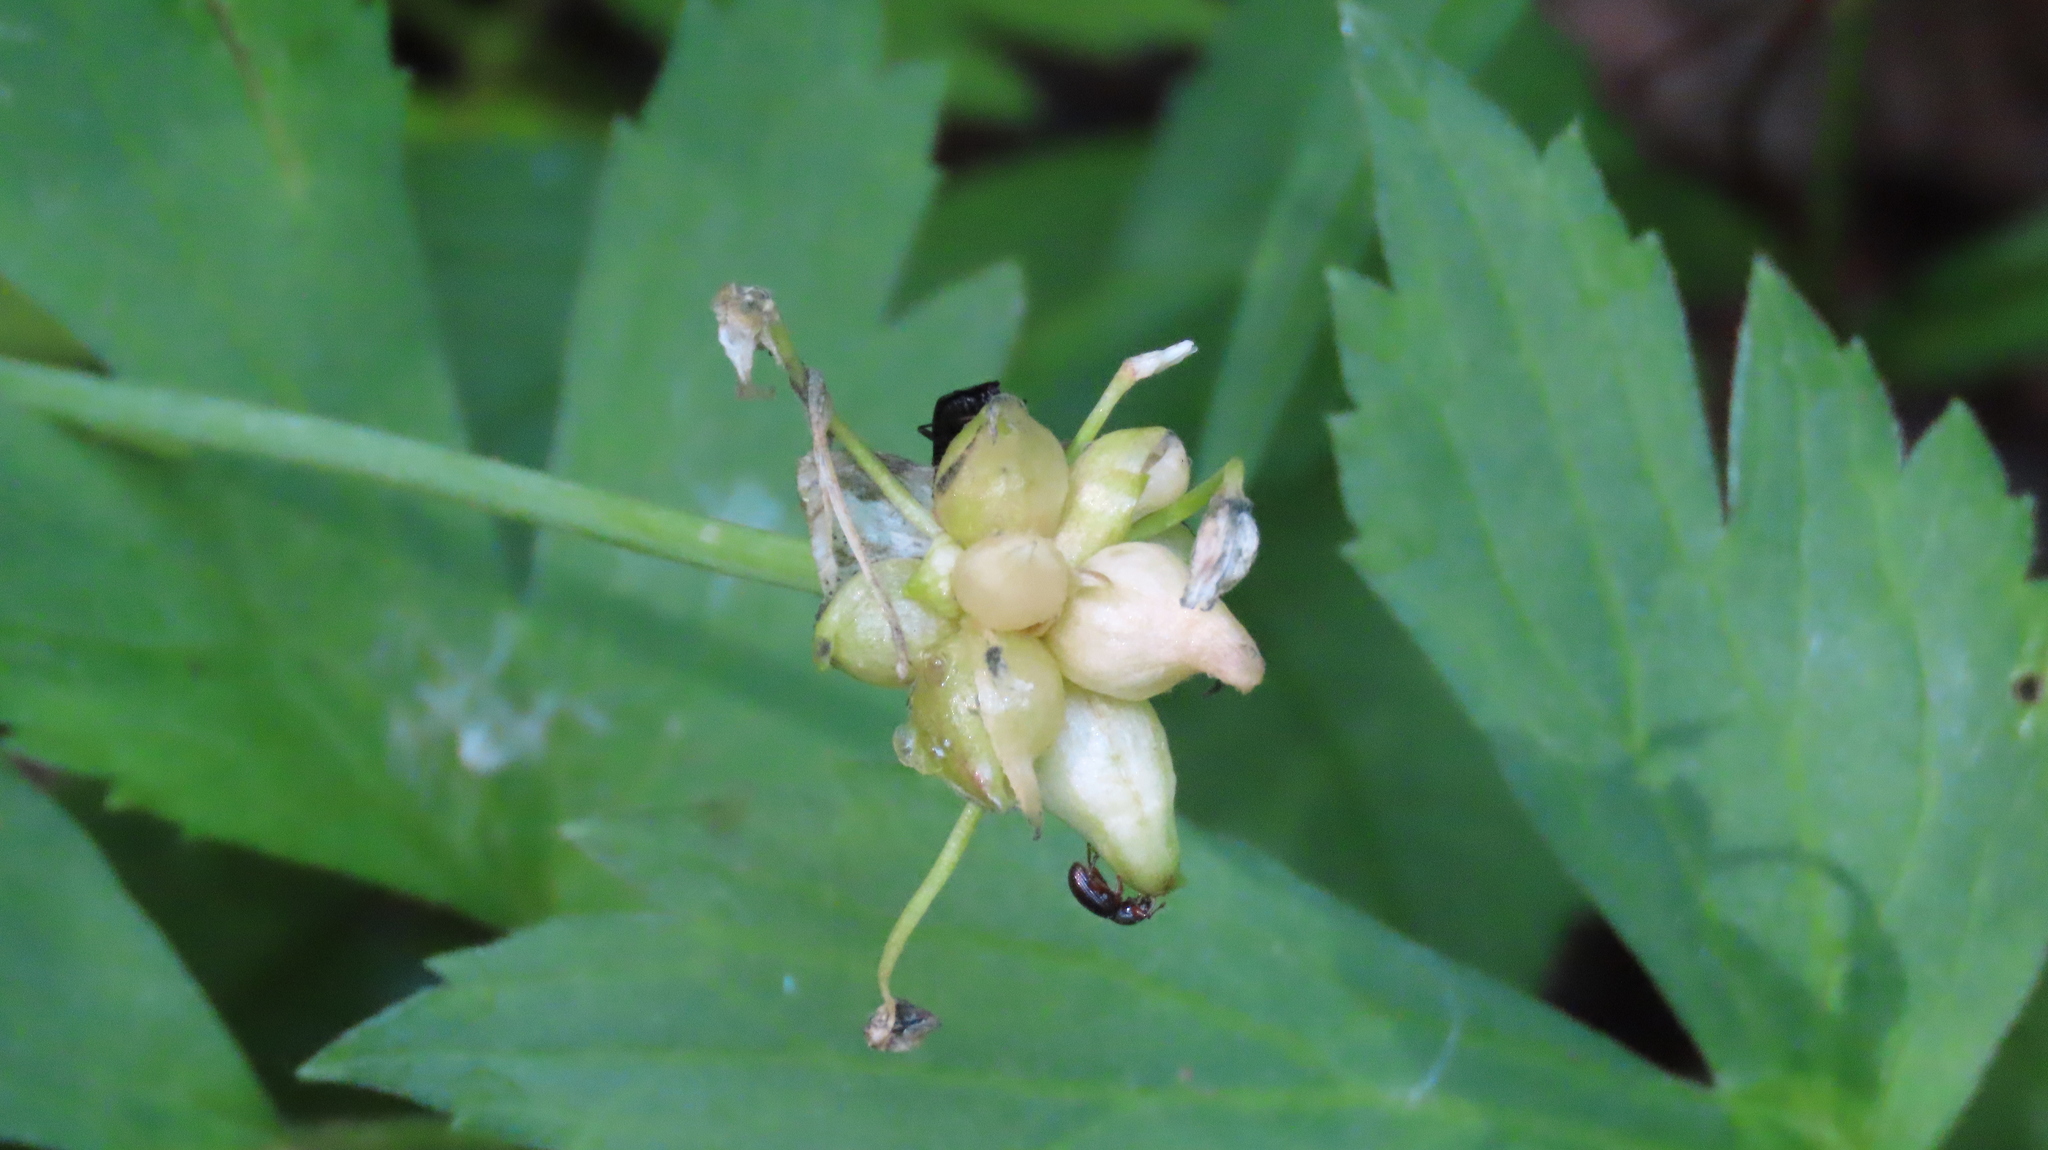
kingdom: Plantae
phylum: Tracheophyta
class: Liliopsida
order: Asparagales
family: Amaryllidaceae
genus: Allium
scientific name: Allium canadense
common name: Meadow garlic
